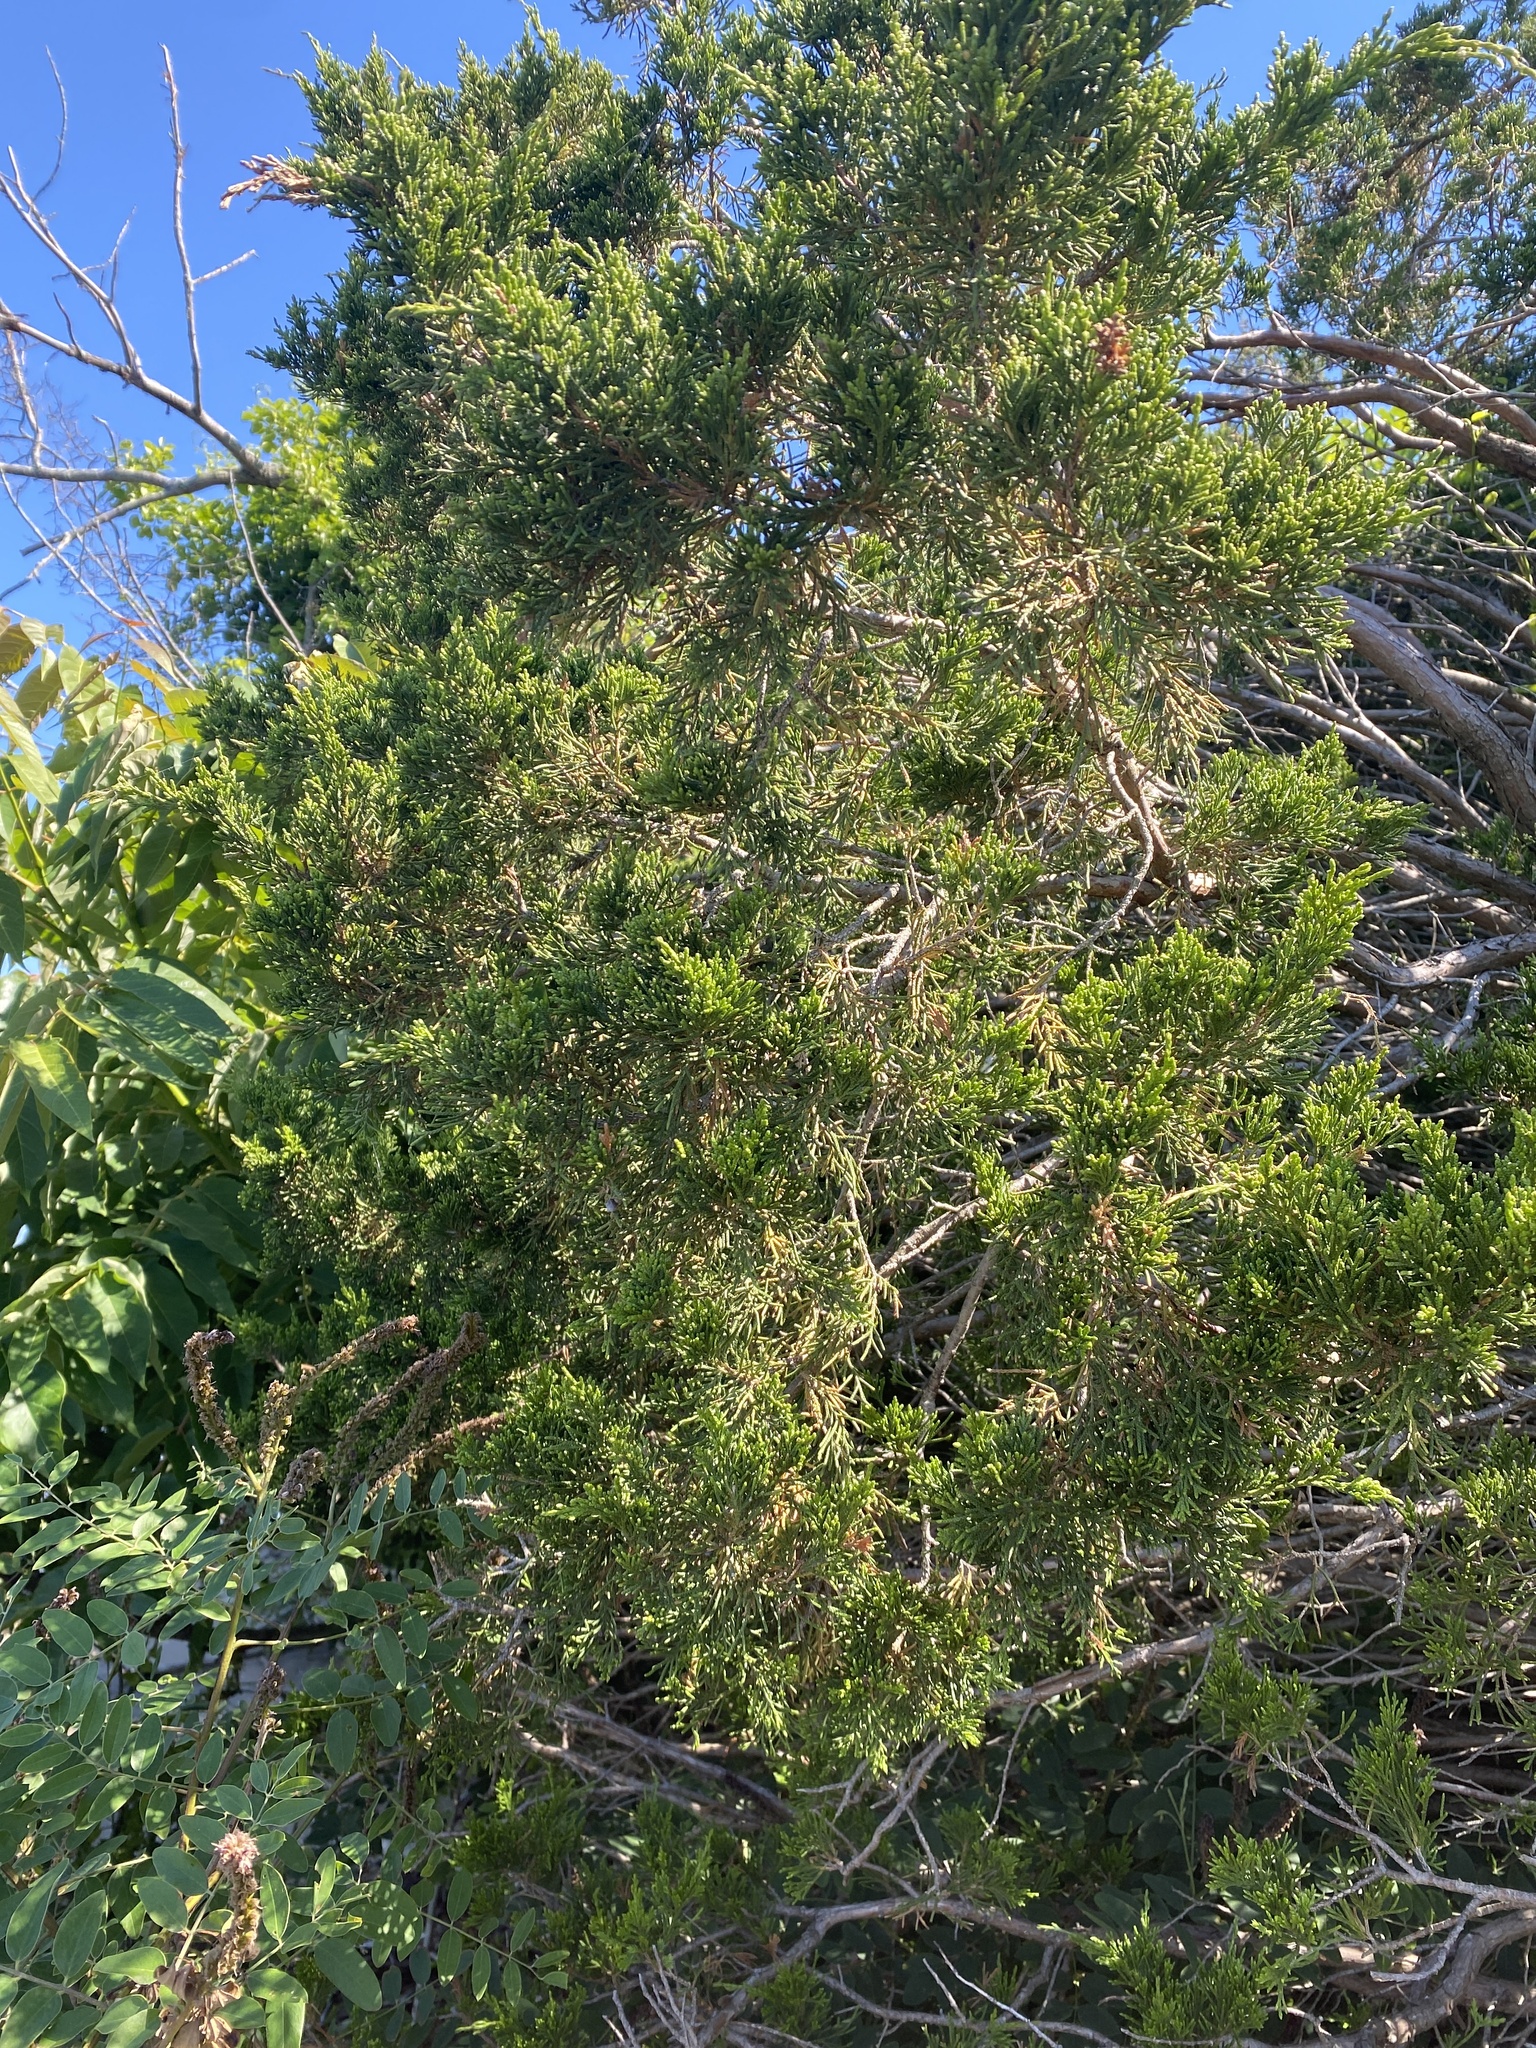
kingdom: Plantae
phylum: Tracheophyta
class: Pinopsida
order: Pinales
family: Cupressaceae
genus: Juniperus
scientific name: Juniperus virginiana
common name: Red juniper
